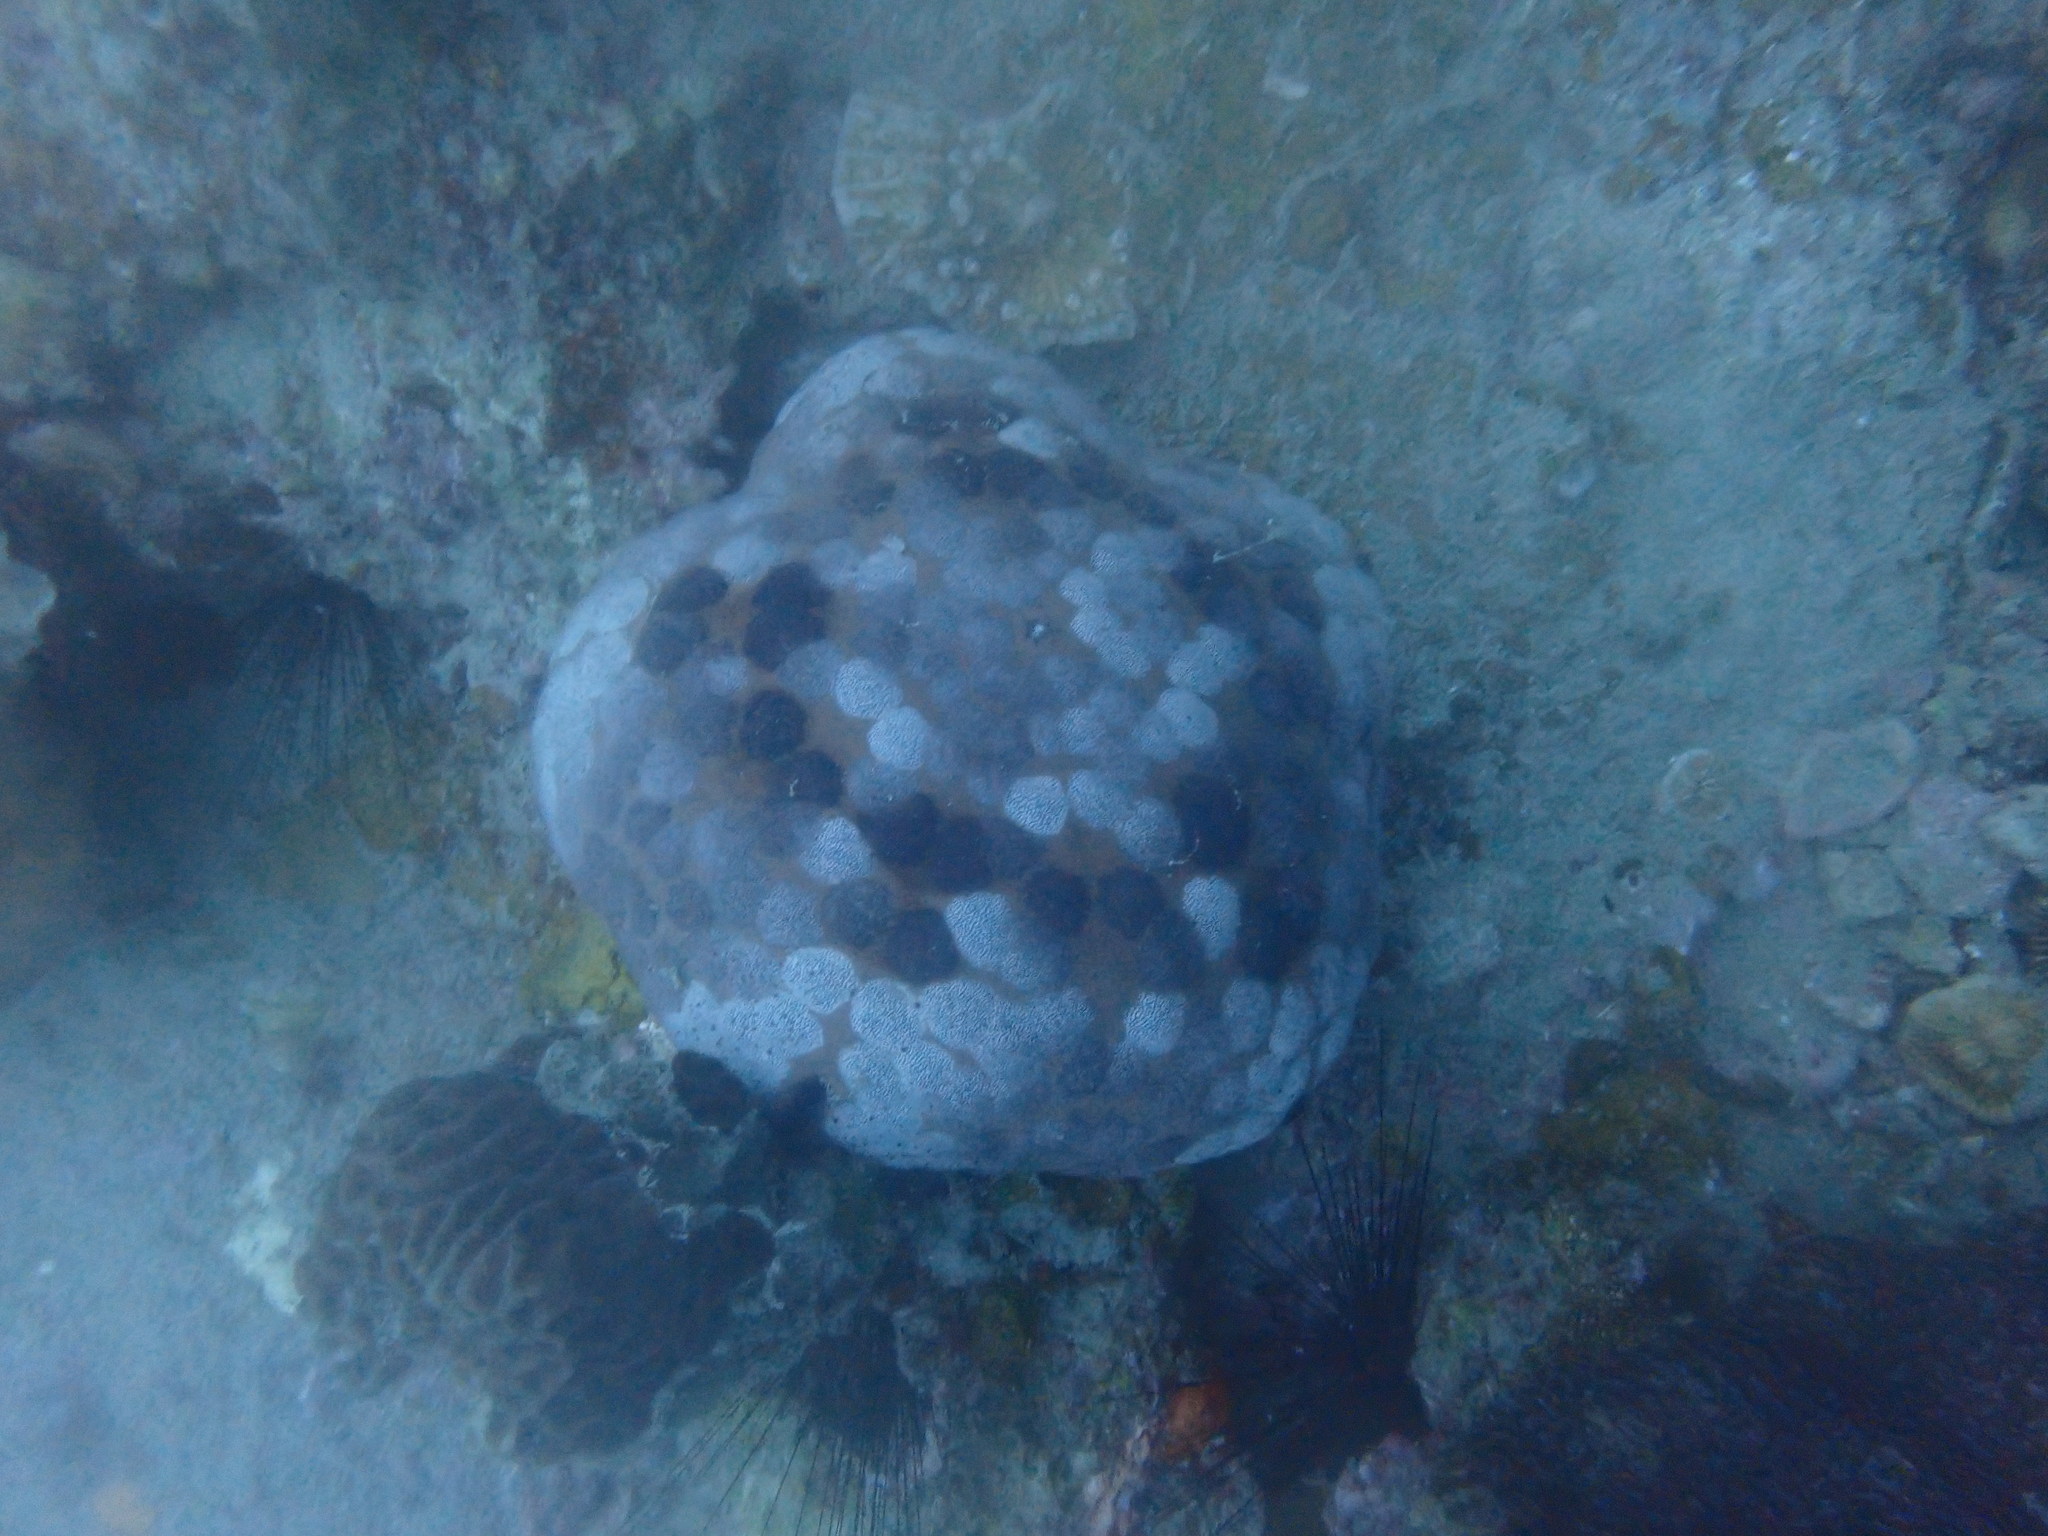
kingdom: Animalia
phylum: Echinodermata
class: Asteroidea
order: Valvatida
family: Oreasteridae
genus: Culcita
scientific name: Culcita novaeguineae
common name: Cushion star
